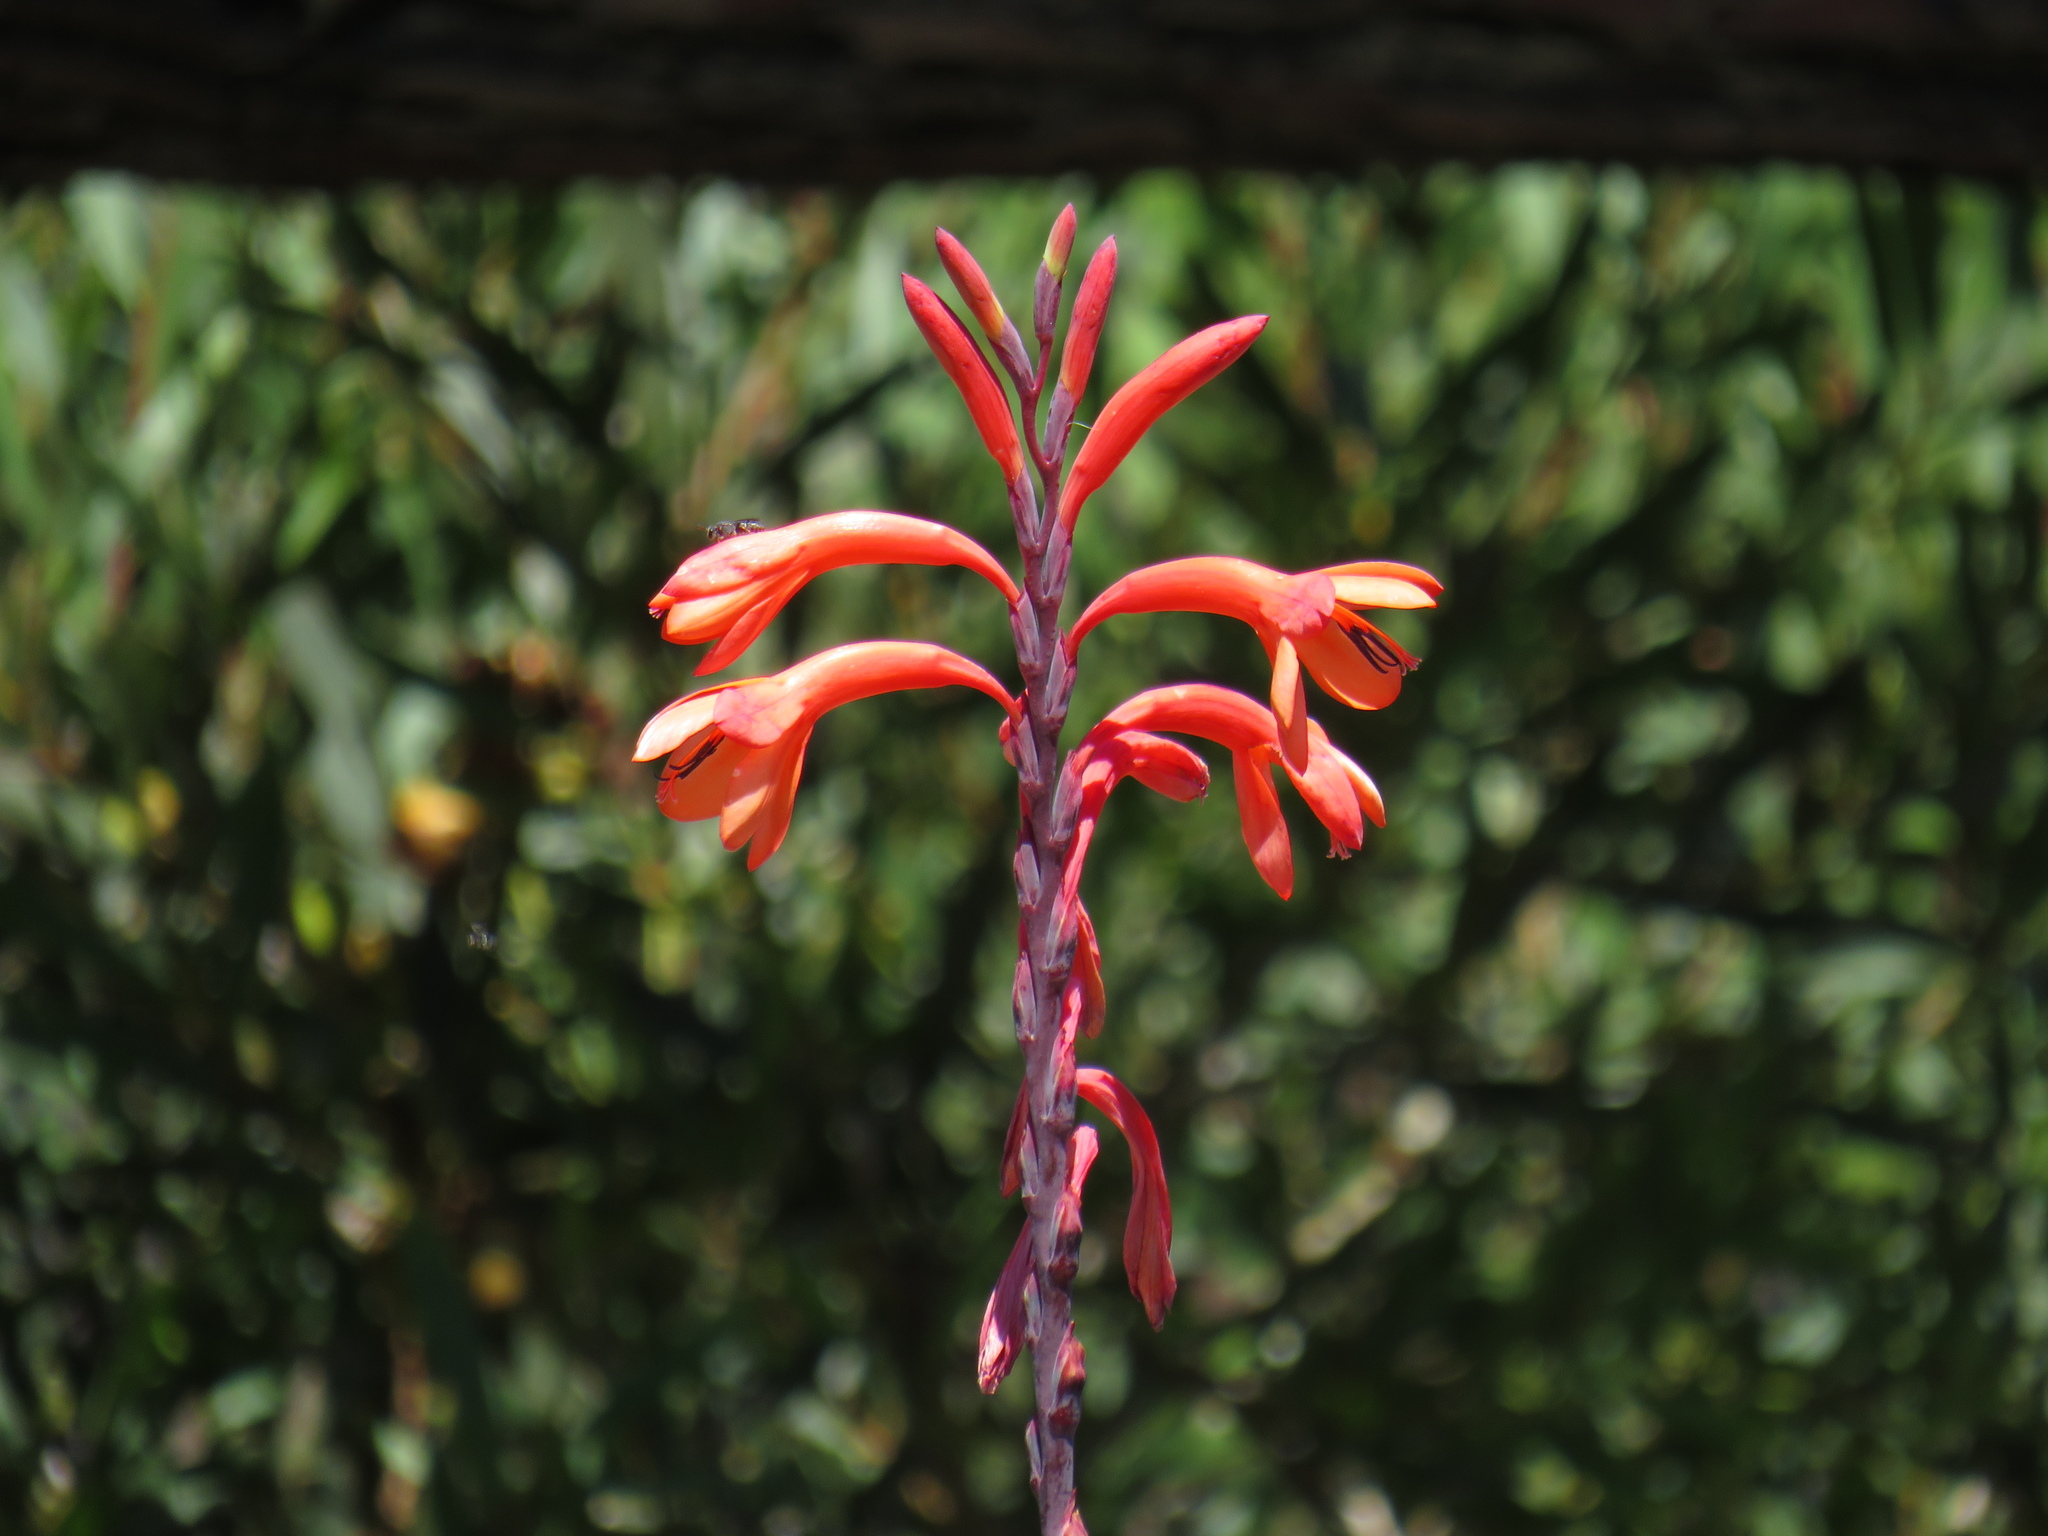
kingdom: Plantae
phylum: Tracheophyta
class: Liliopsida
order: Asparagales
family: Iridaceae
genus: Watsonia
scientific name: Watsonia tabularis
